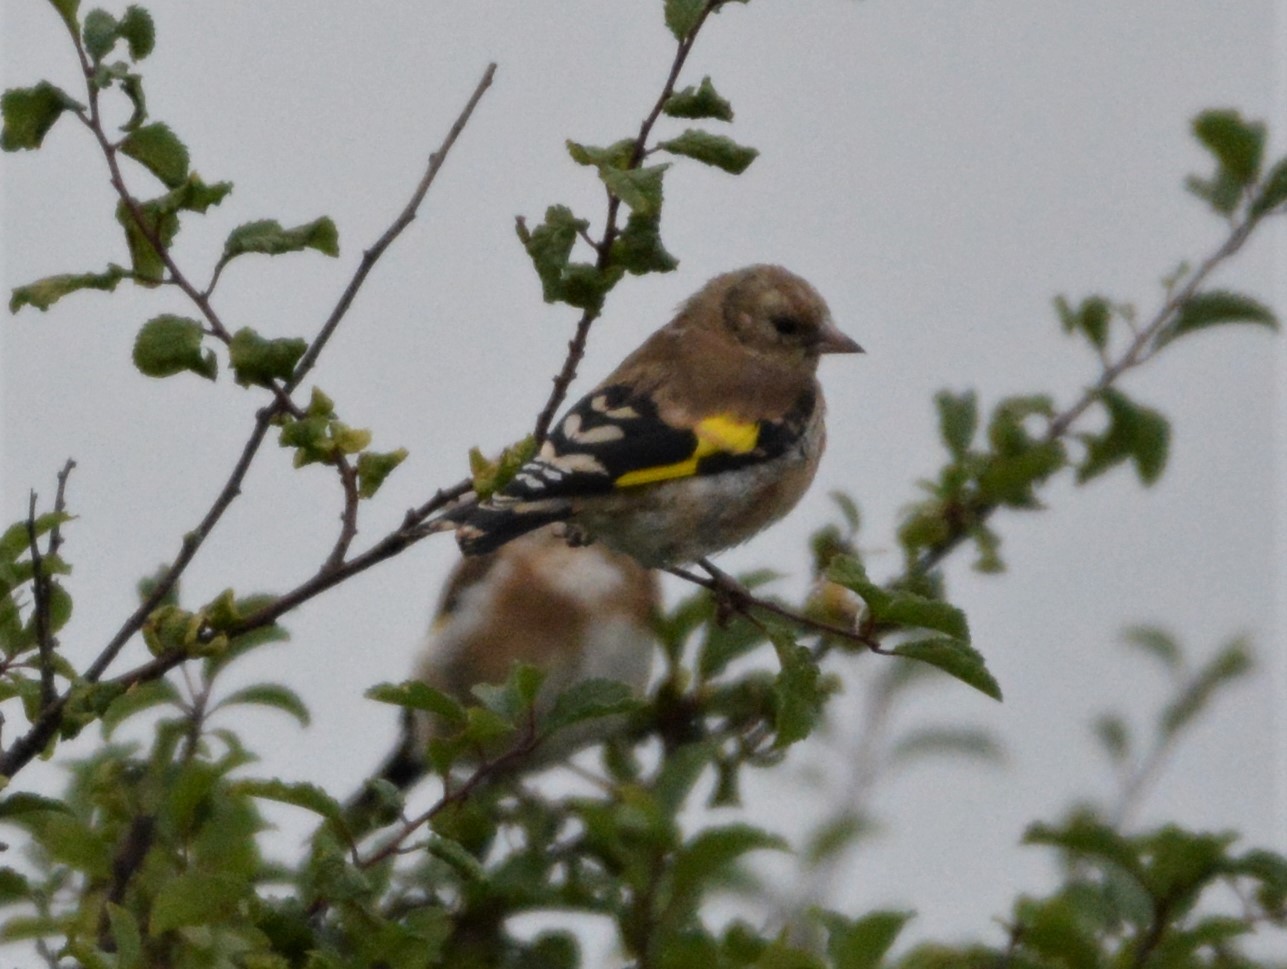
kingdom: Animalia
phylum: Chordata
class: Aves
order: Passeriformes
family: Fringillidae
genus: Carduelis
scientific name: Carduelis carduelis
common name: European goldfinch
